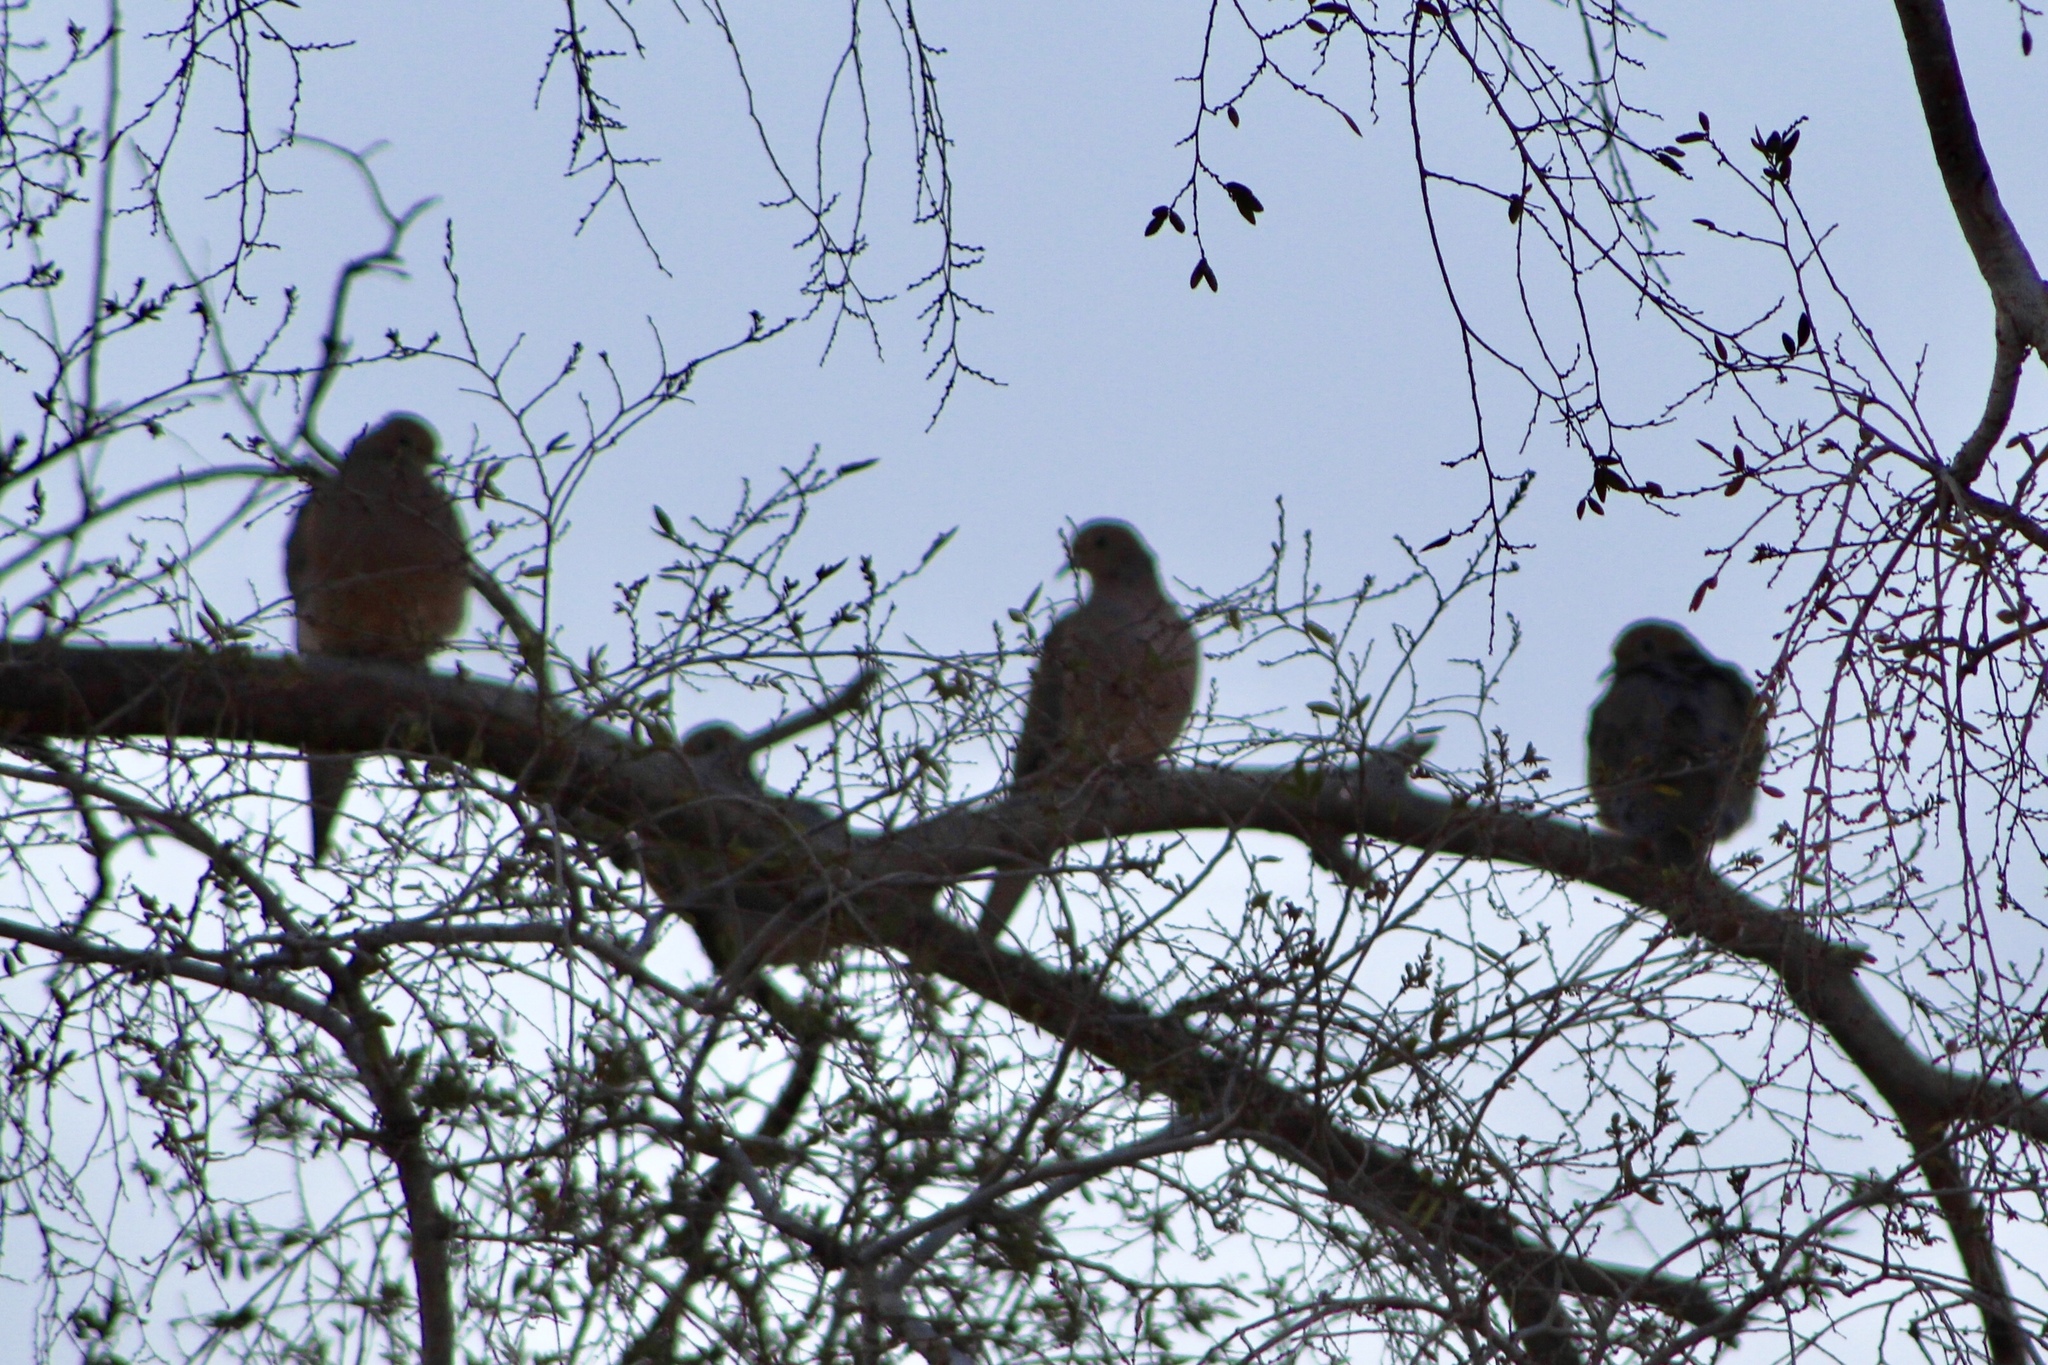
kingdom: Animalia
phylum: Chordata
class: Aves
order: Columbiformes
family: Columbidae
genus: Zenaida
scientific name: Zenaida macroura
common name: Mourning dove
